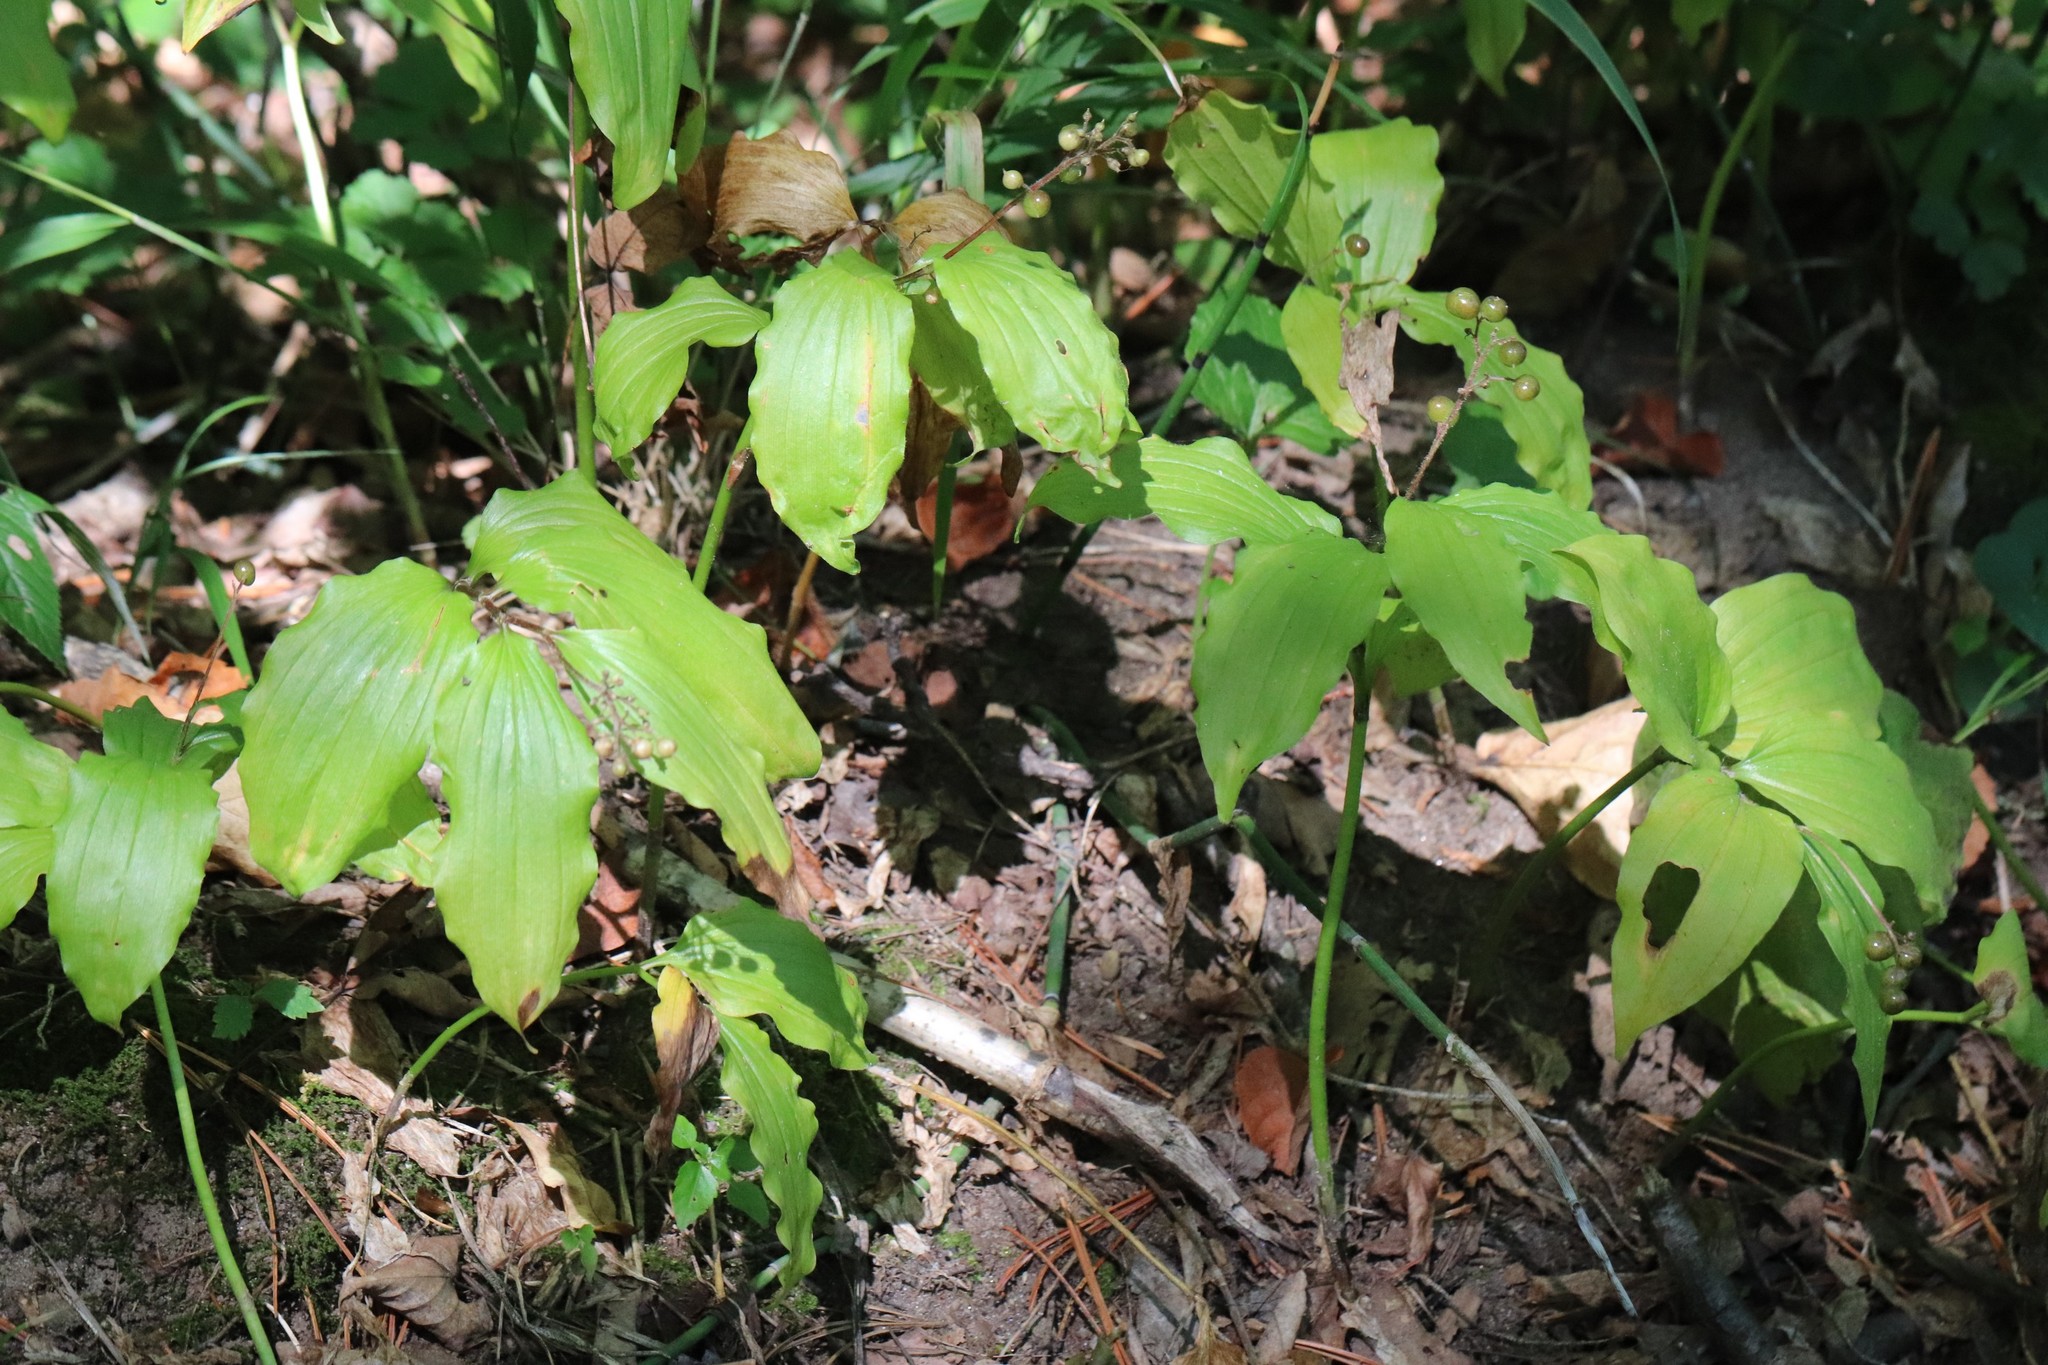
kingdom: Plantae
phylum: Tracheophyta
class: Liliopsida
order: Asparagales
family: Asparagaceae
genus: Maianthemum
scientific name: Maianthemum japonicum
